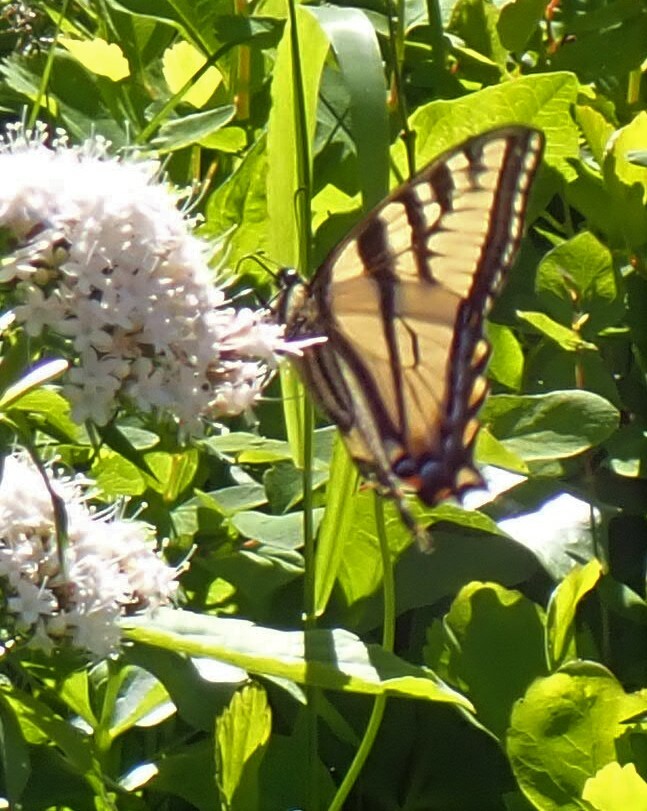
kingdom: Animalia
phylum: Arthropoda
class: Insecta
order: Lepidoptera
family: Papilionidae
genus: Papilio
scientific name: Papilio canadensis
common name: Canadian tiger swallowtail
